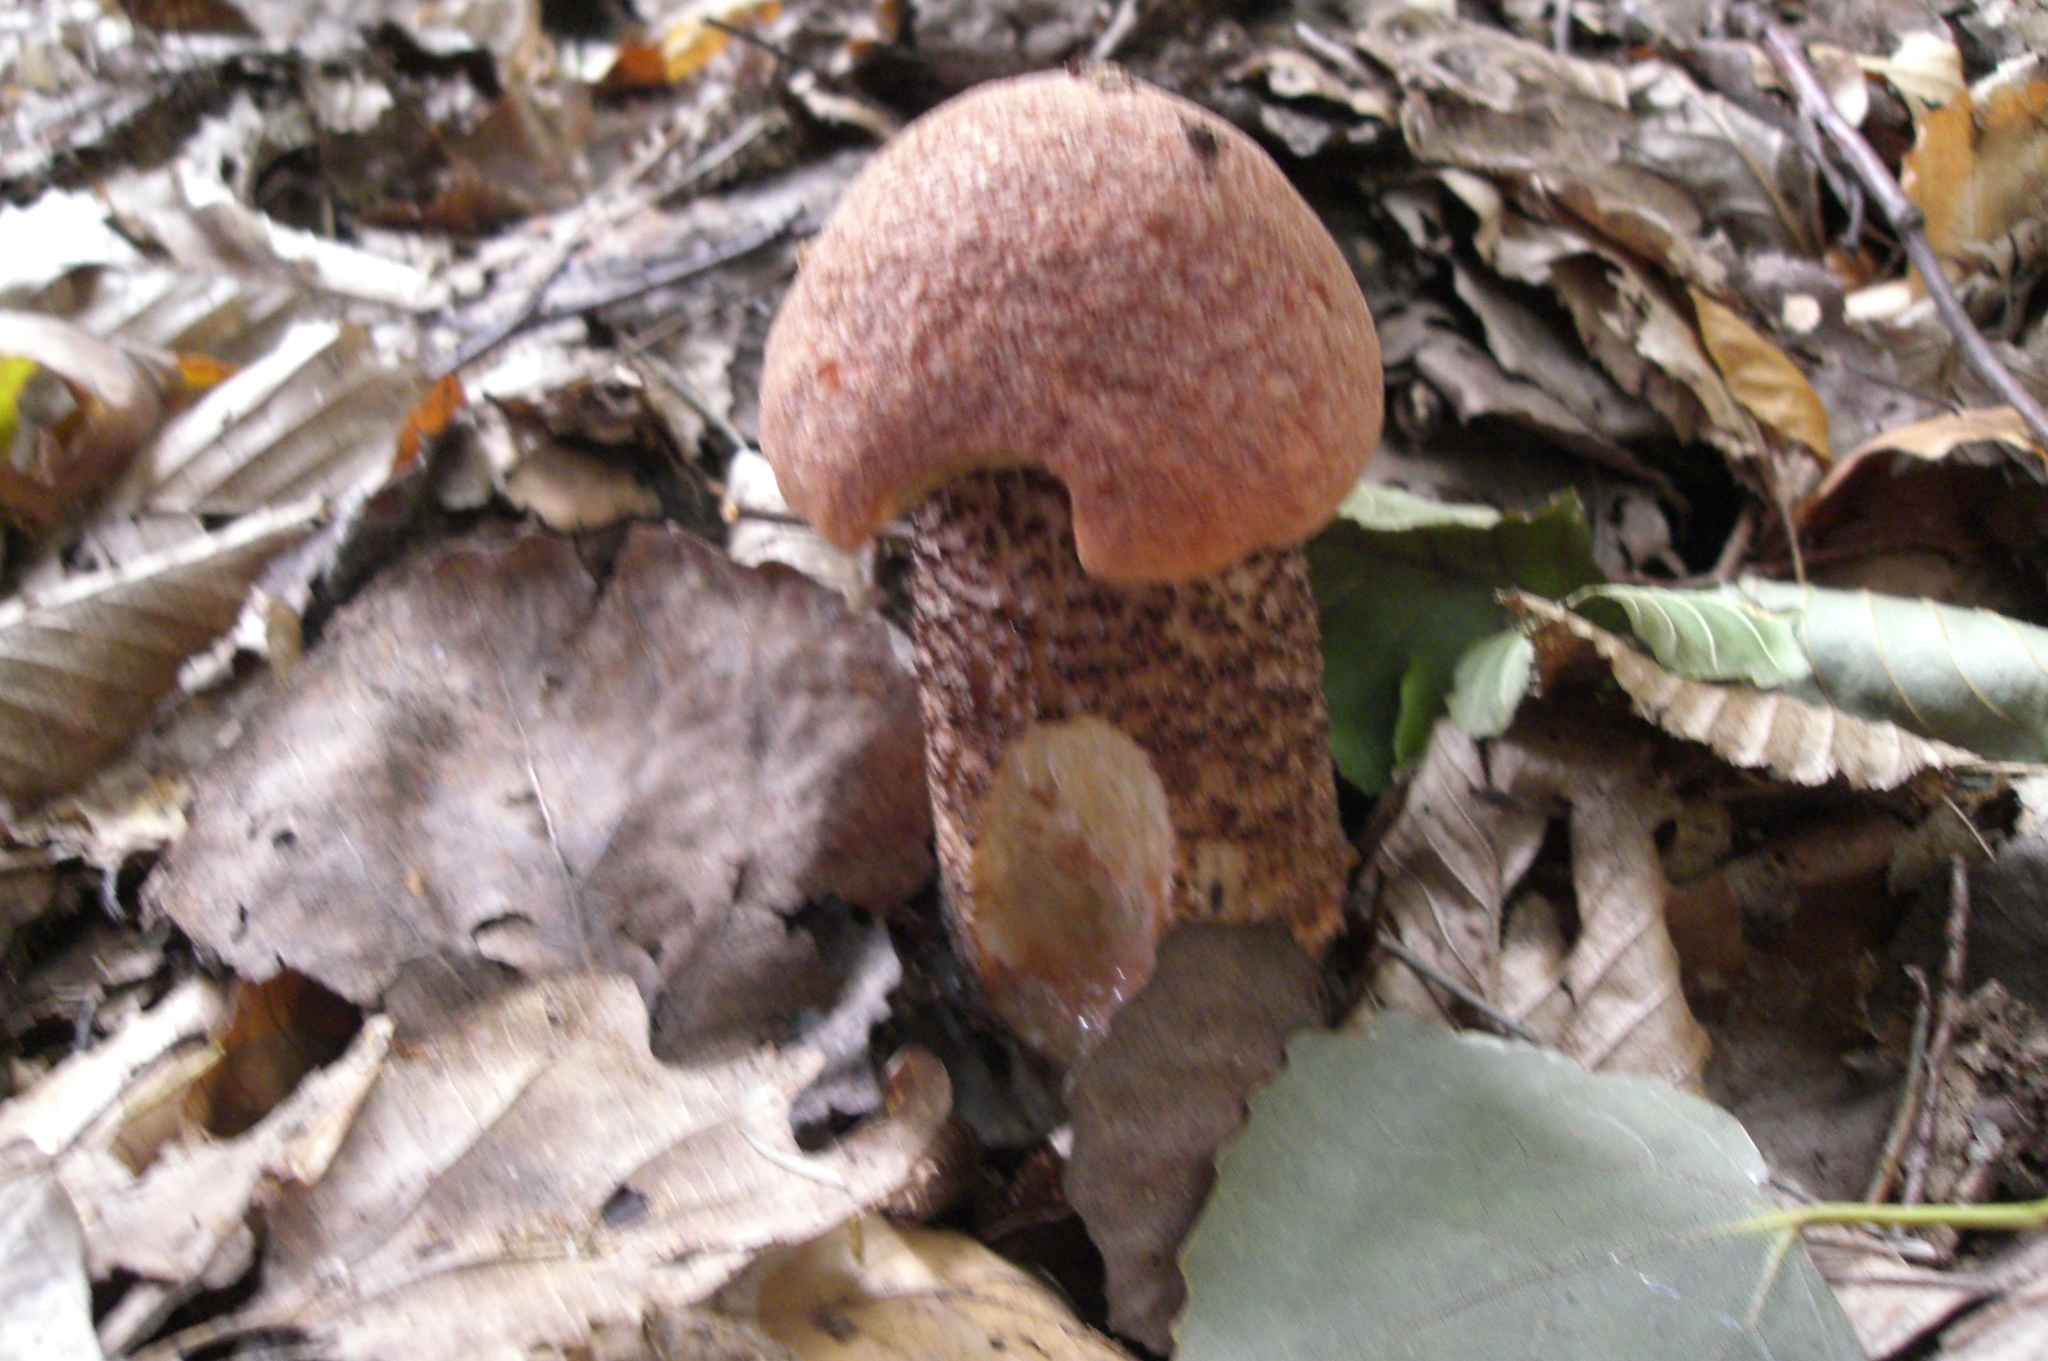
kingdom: Fungi
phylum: Basidiomycota
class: Agaricomycetes
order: Boletales
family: Boletaceae
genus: Leccinum
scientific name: Leccinum aurantiacum
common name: Orange bolete
